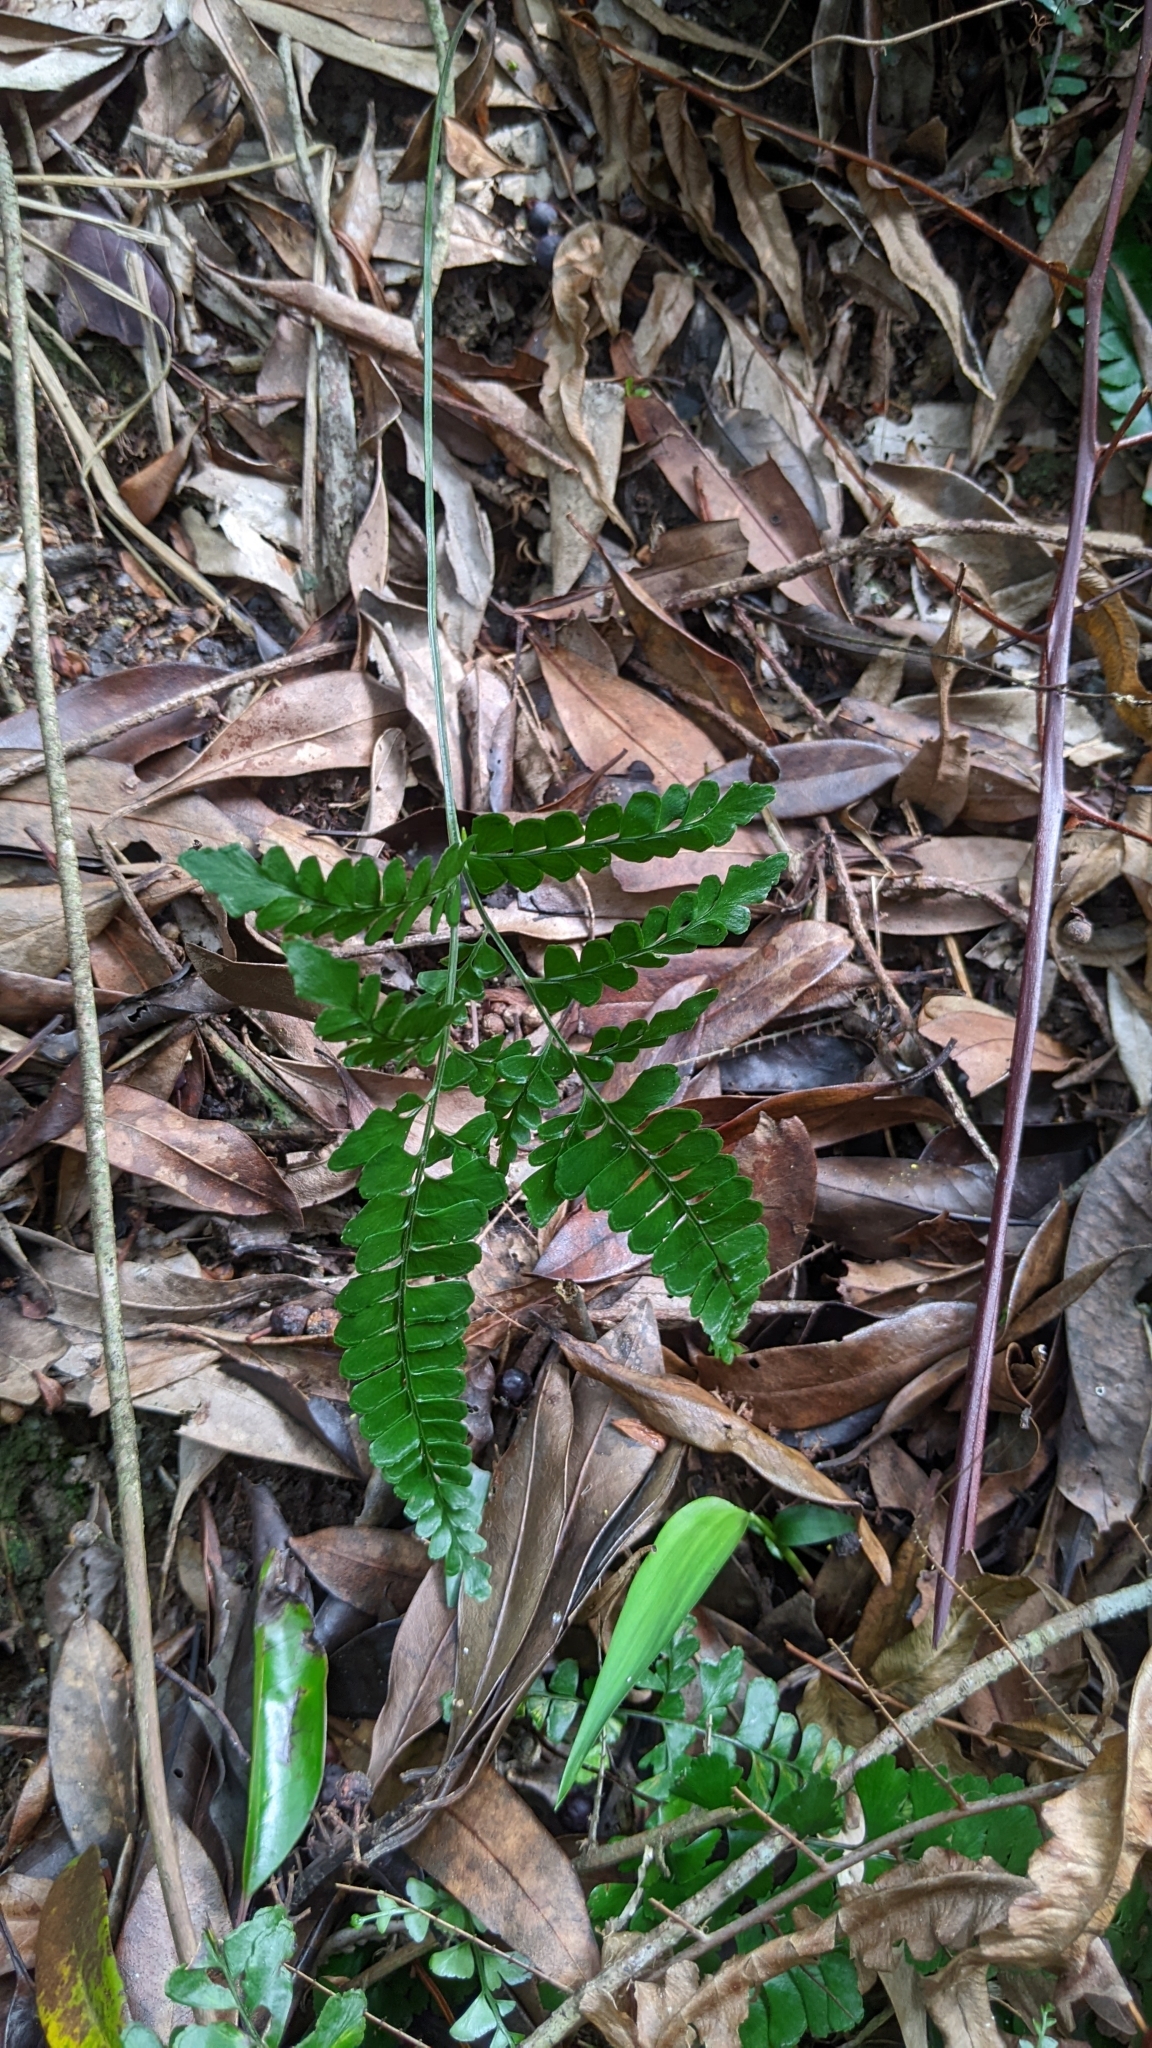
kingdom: Plantae
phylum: Tracheophyta
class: Polypodiopsida
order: Polypodiales
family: Lindsaeaceae
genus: Lindsaea
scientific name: Lindsaea bonii
